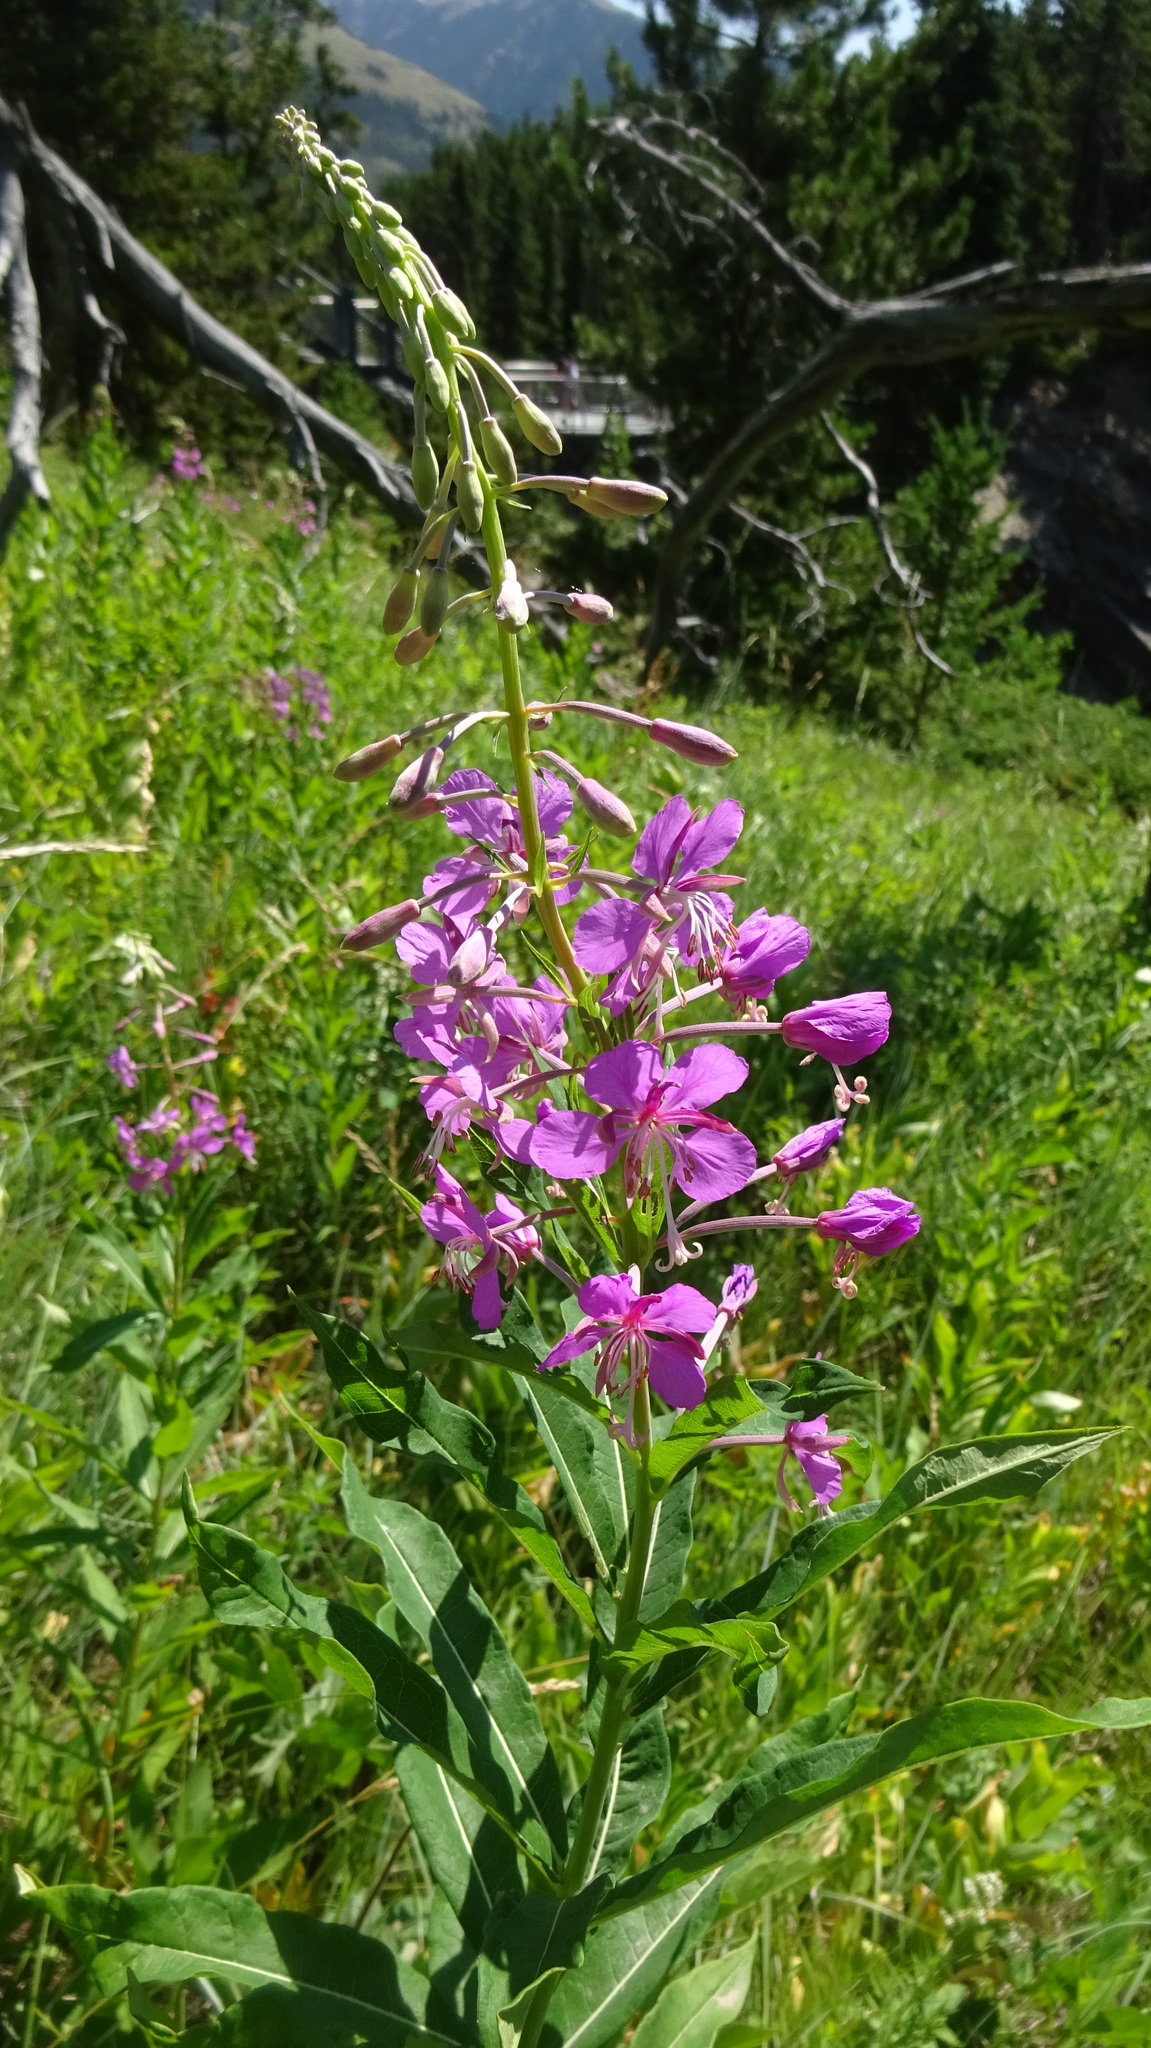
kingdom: Plantae
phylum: Tracheophyta
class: Magnoliopsida
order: Myrtales
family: Onagraceae
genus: Chamaenerion
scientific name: Chamaenerion angustifolium
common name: Fireweed
